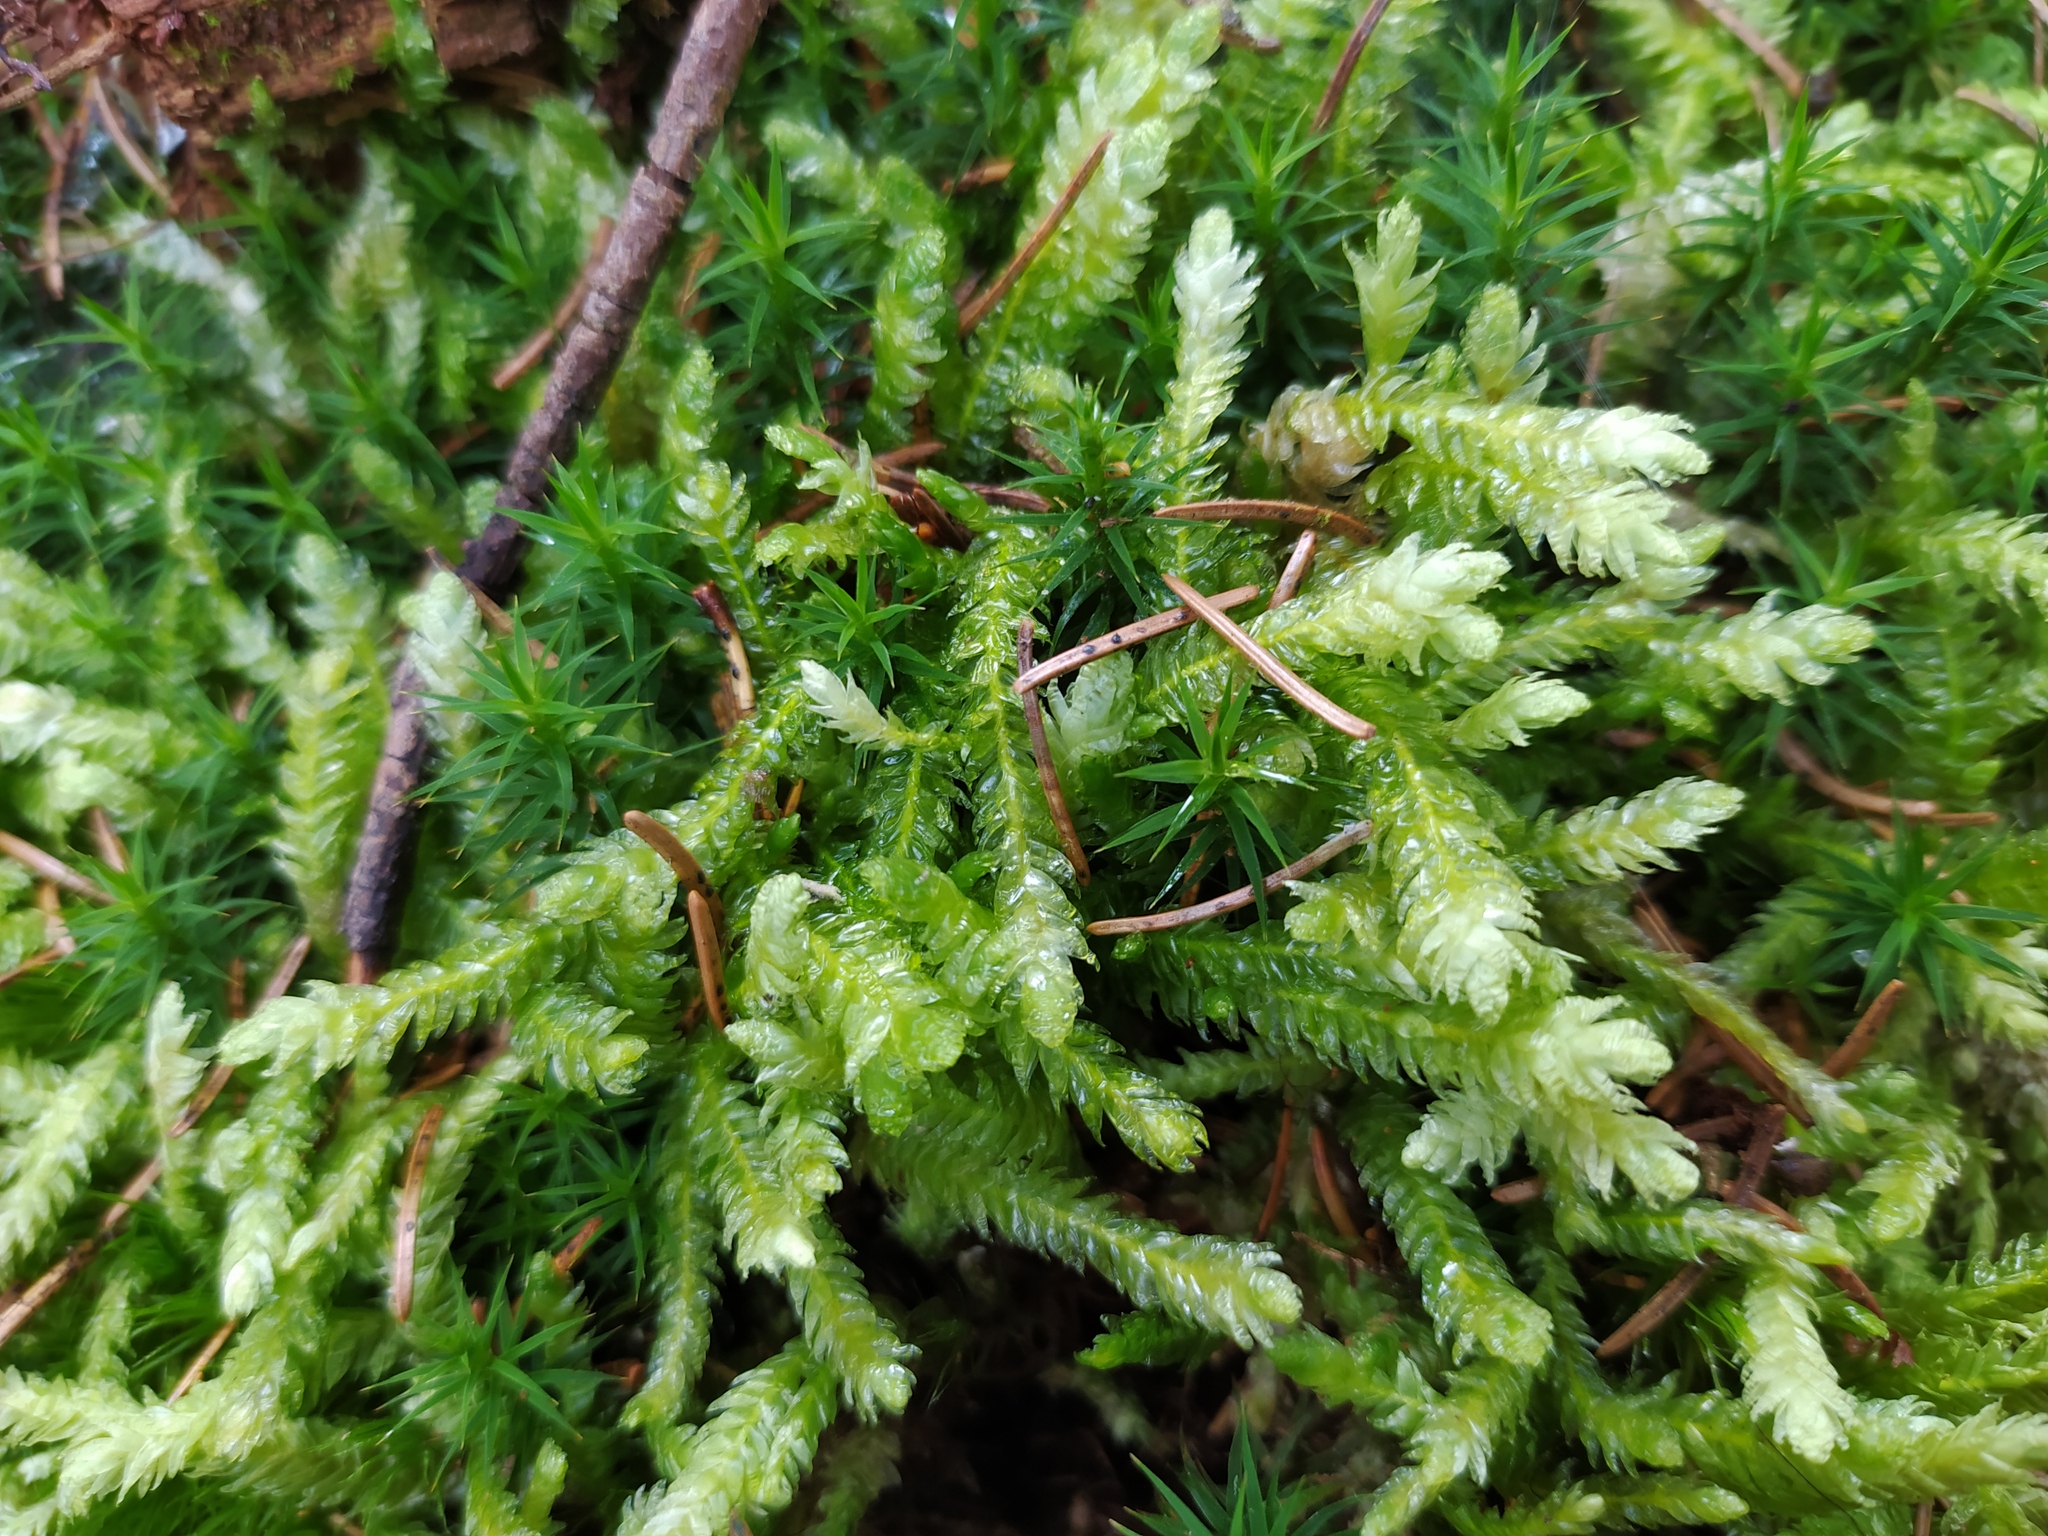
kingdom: Plantae
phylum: Bryophyta
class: Bryopsida
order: Hypnales
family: Plagiotheciaceae
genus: Plagiothecium
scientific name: Plagiothecium undulatum
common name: Waved silk-moss
